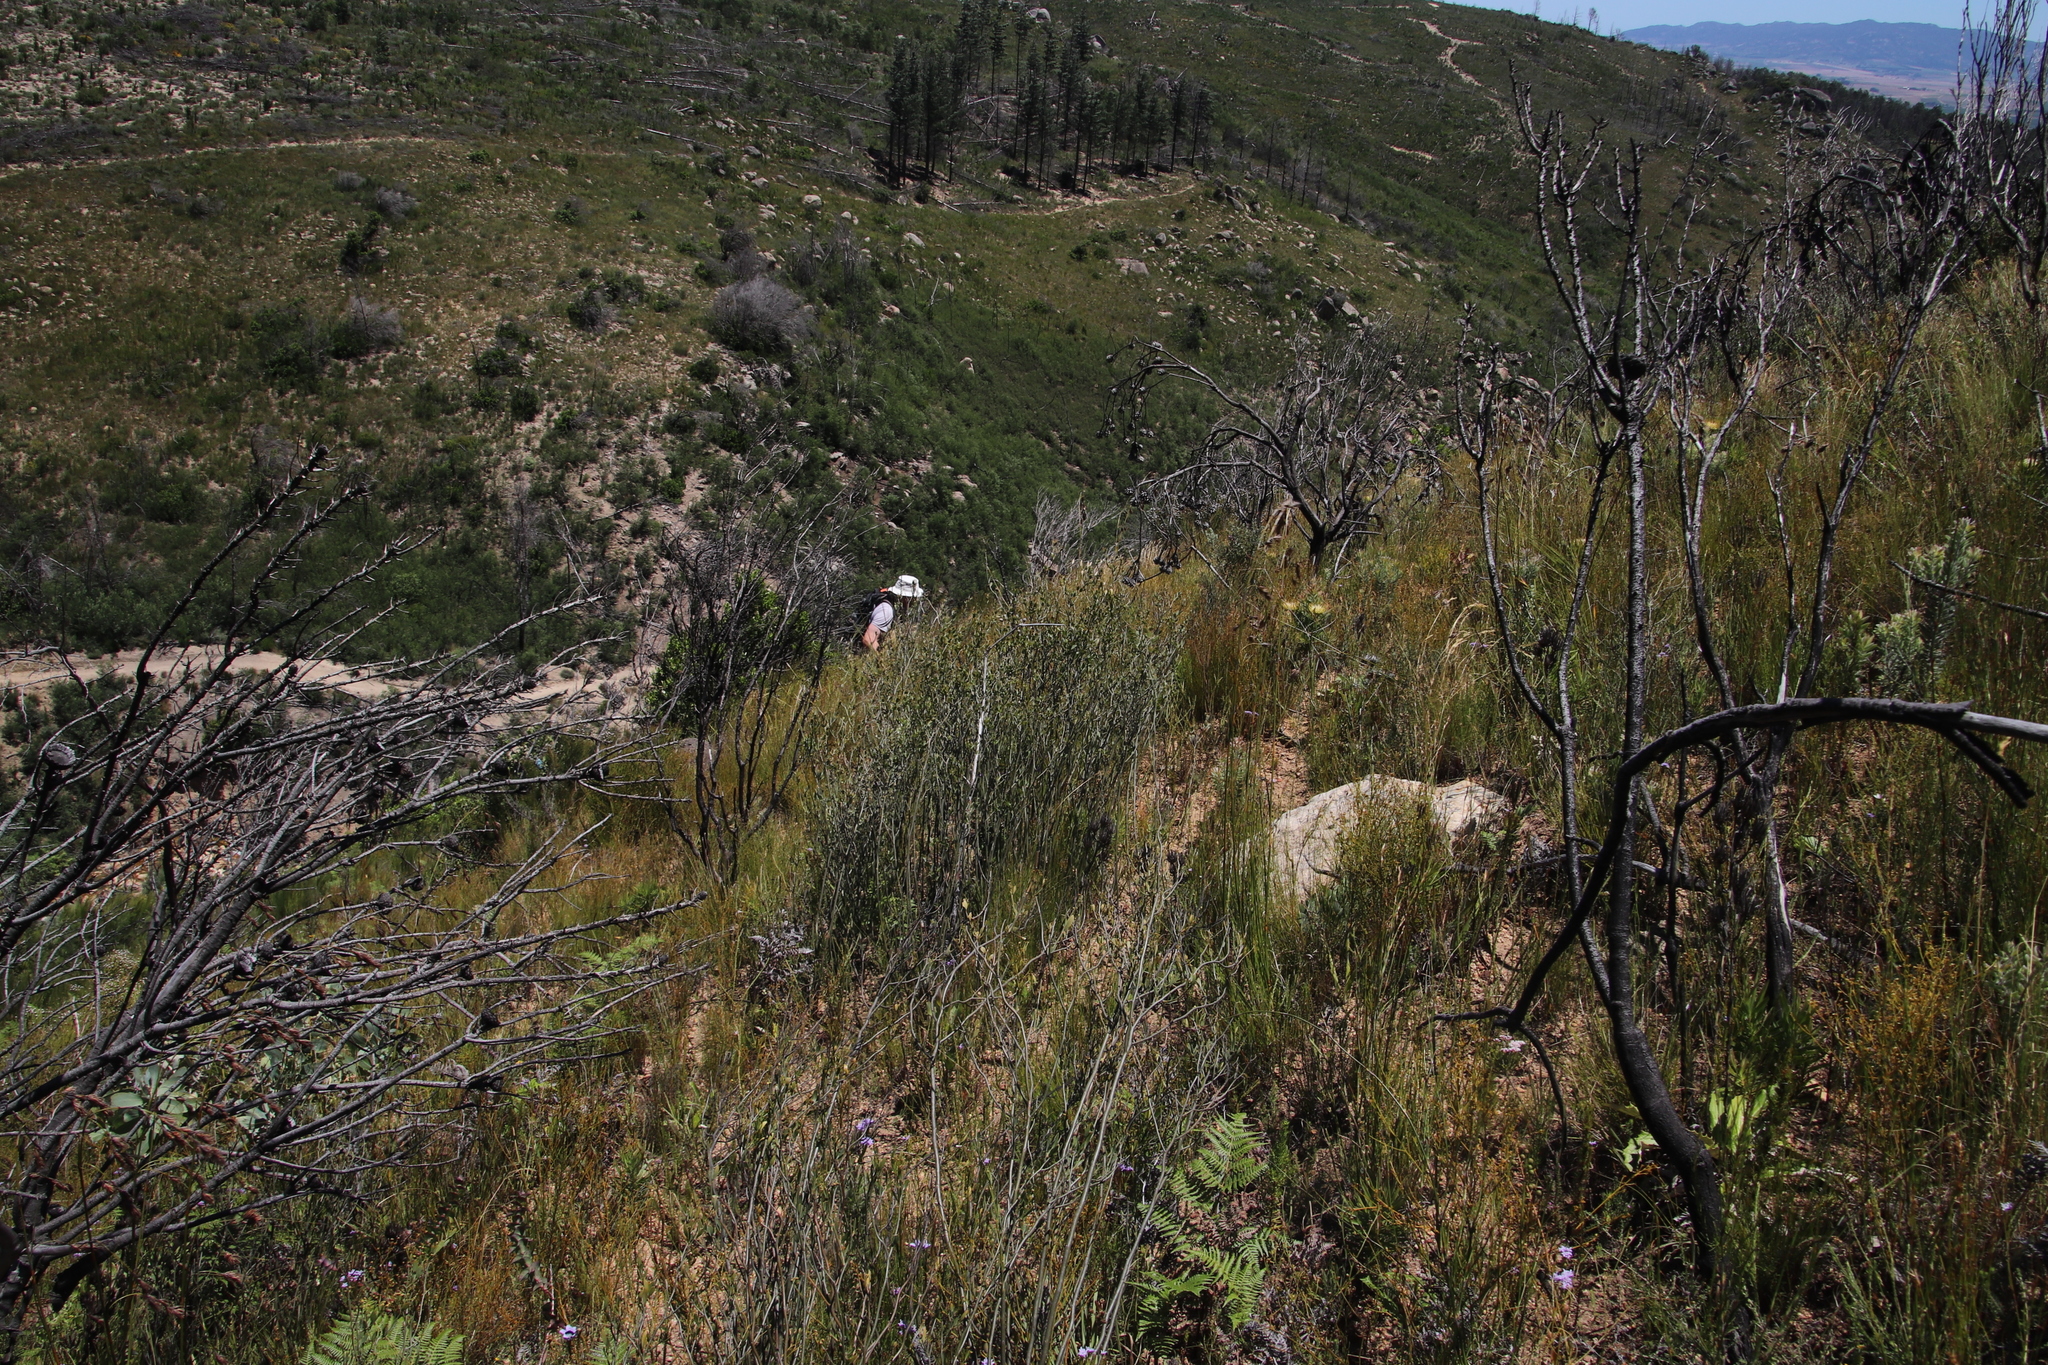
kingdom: Plantae
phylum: Tracheophyta
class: Magnoliopsida
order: Solanales
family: Montiniaceae
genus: Montinia
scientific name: Montinia caryophyllacea
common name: Wild clove-bush
